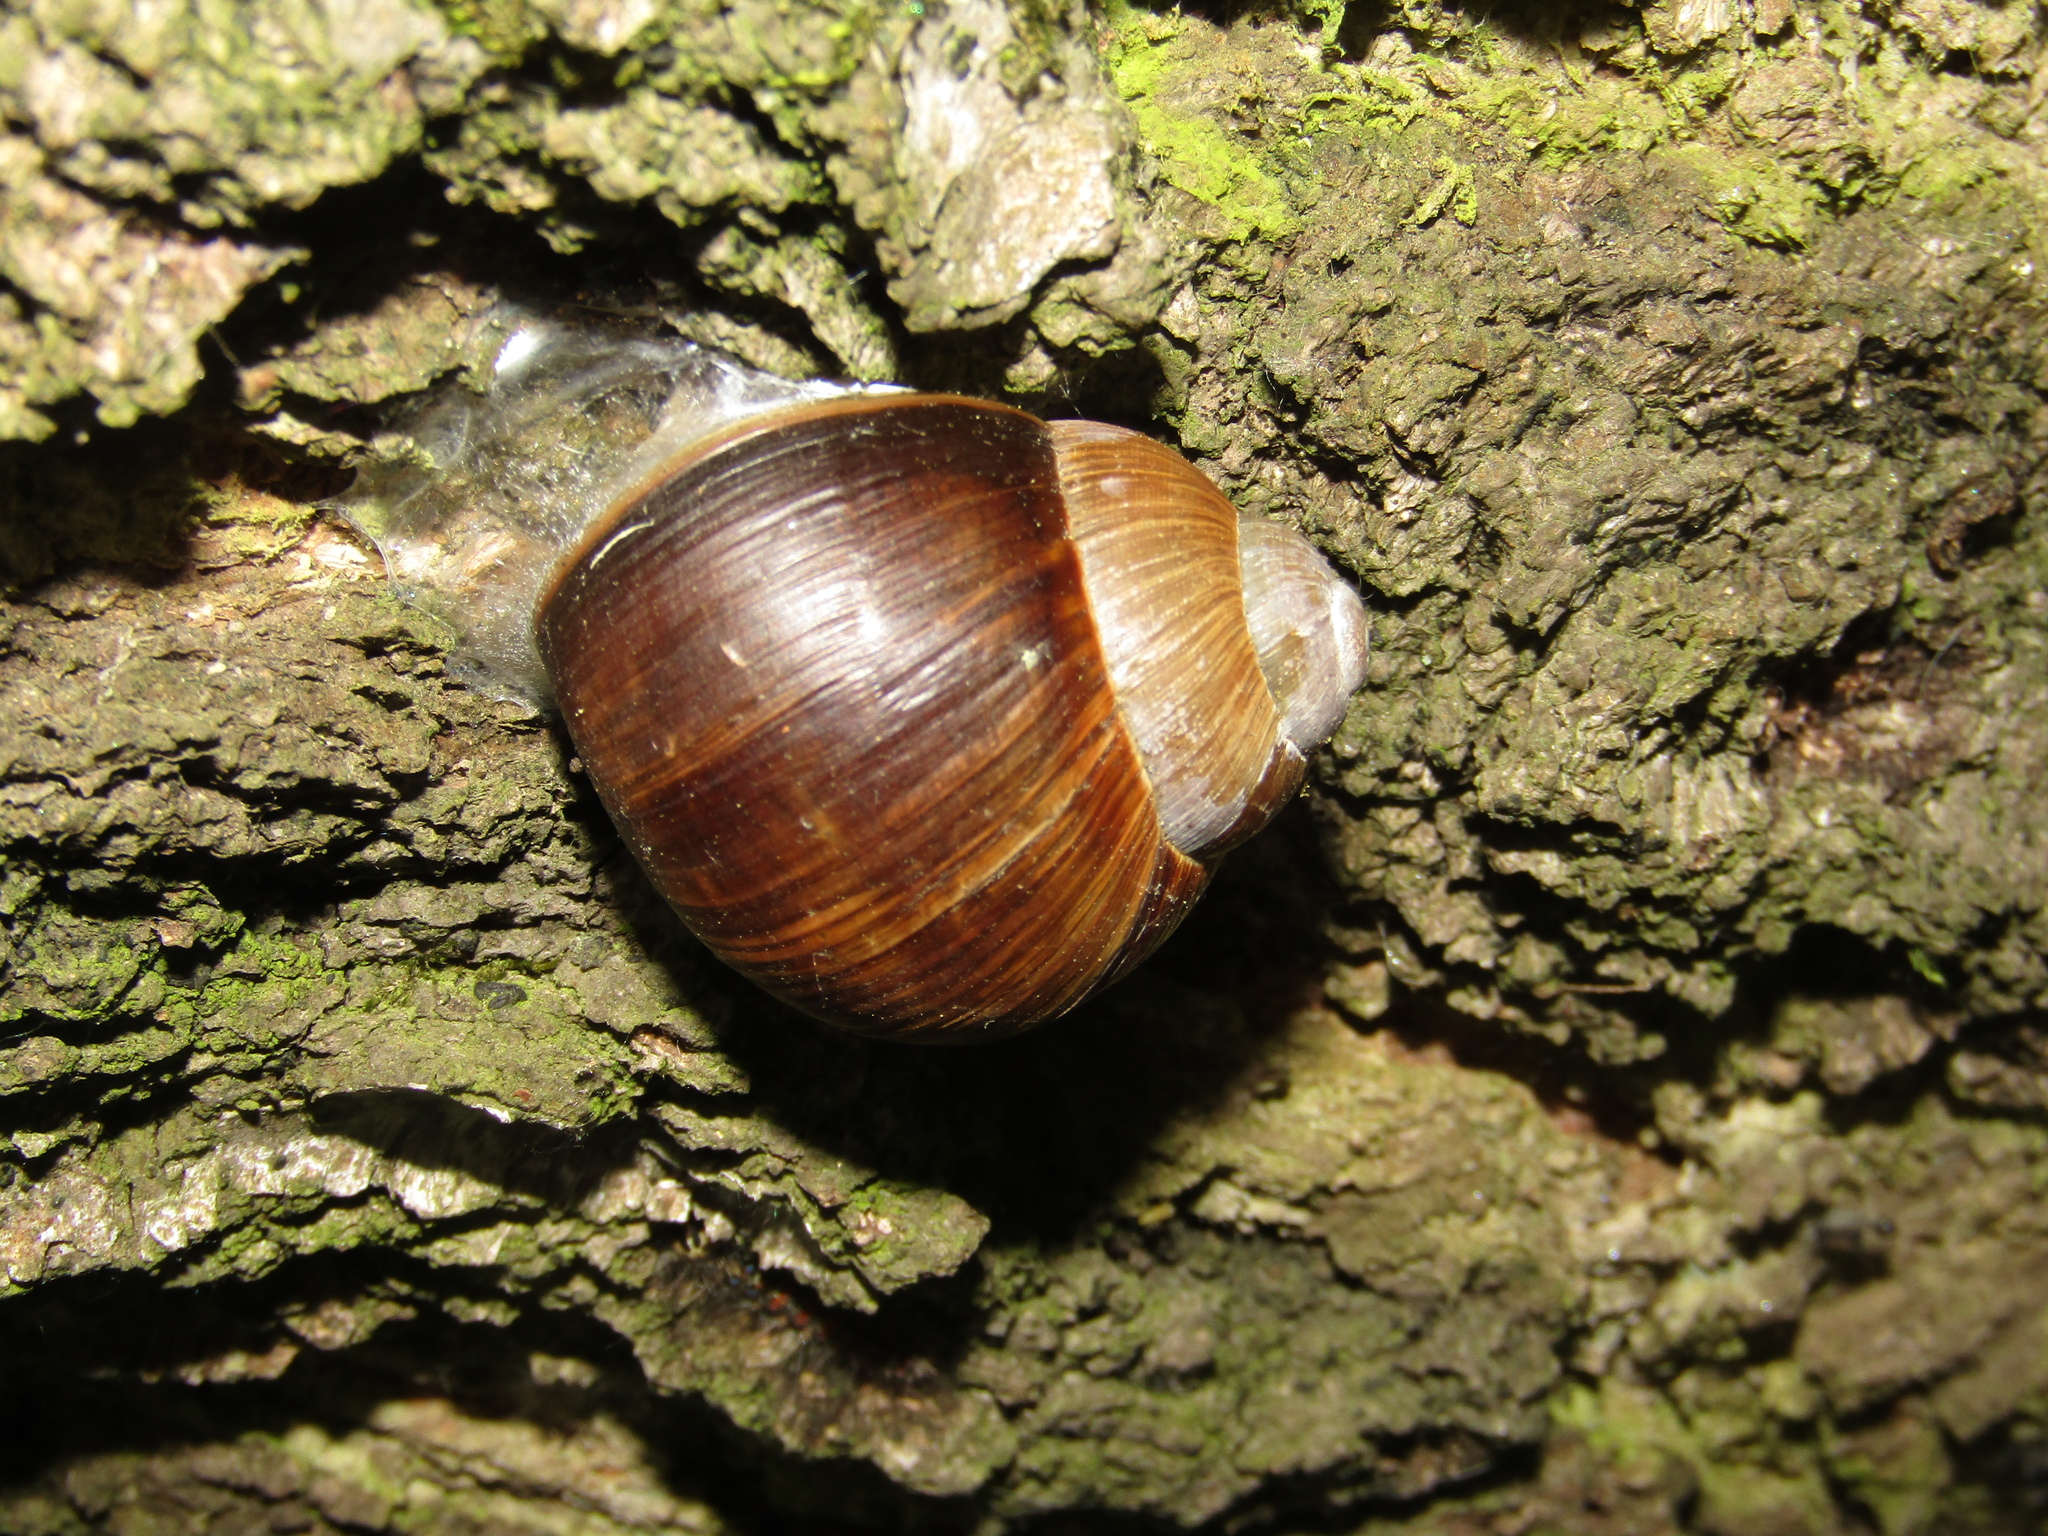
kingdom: Animalia
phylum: Mollusca
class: Gastropoda
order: Stylommatophora
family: Helicidae
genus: Helix
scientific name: Helix pomatia
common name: Roman snail
